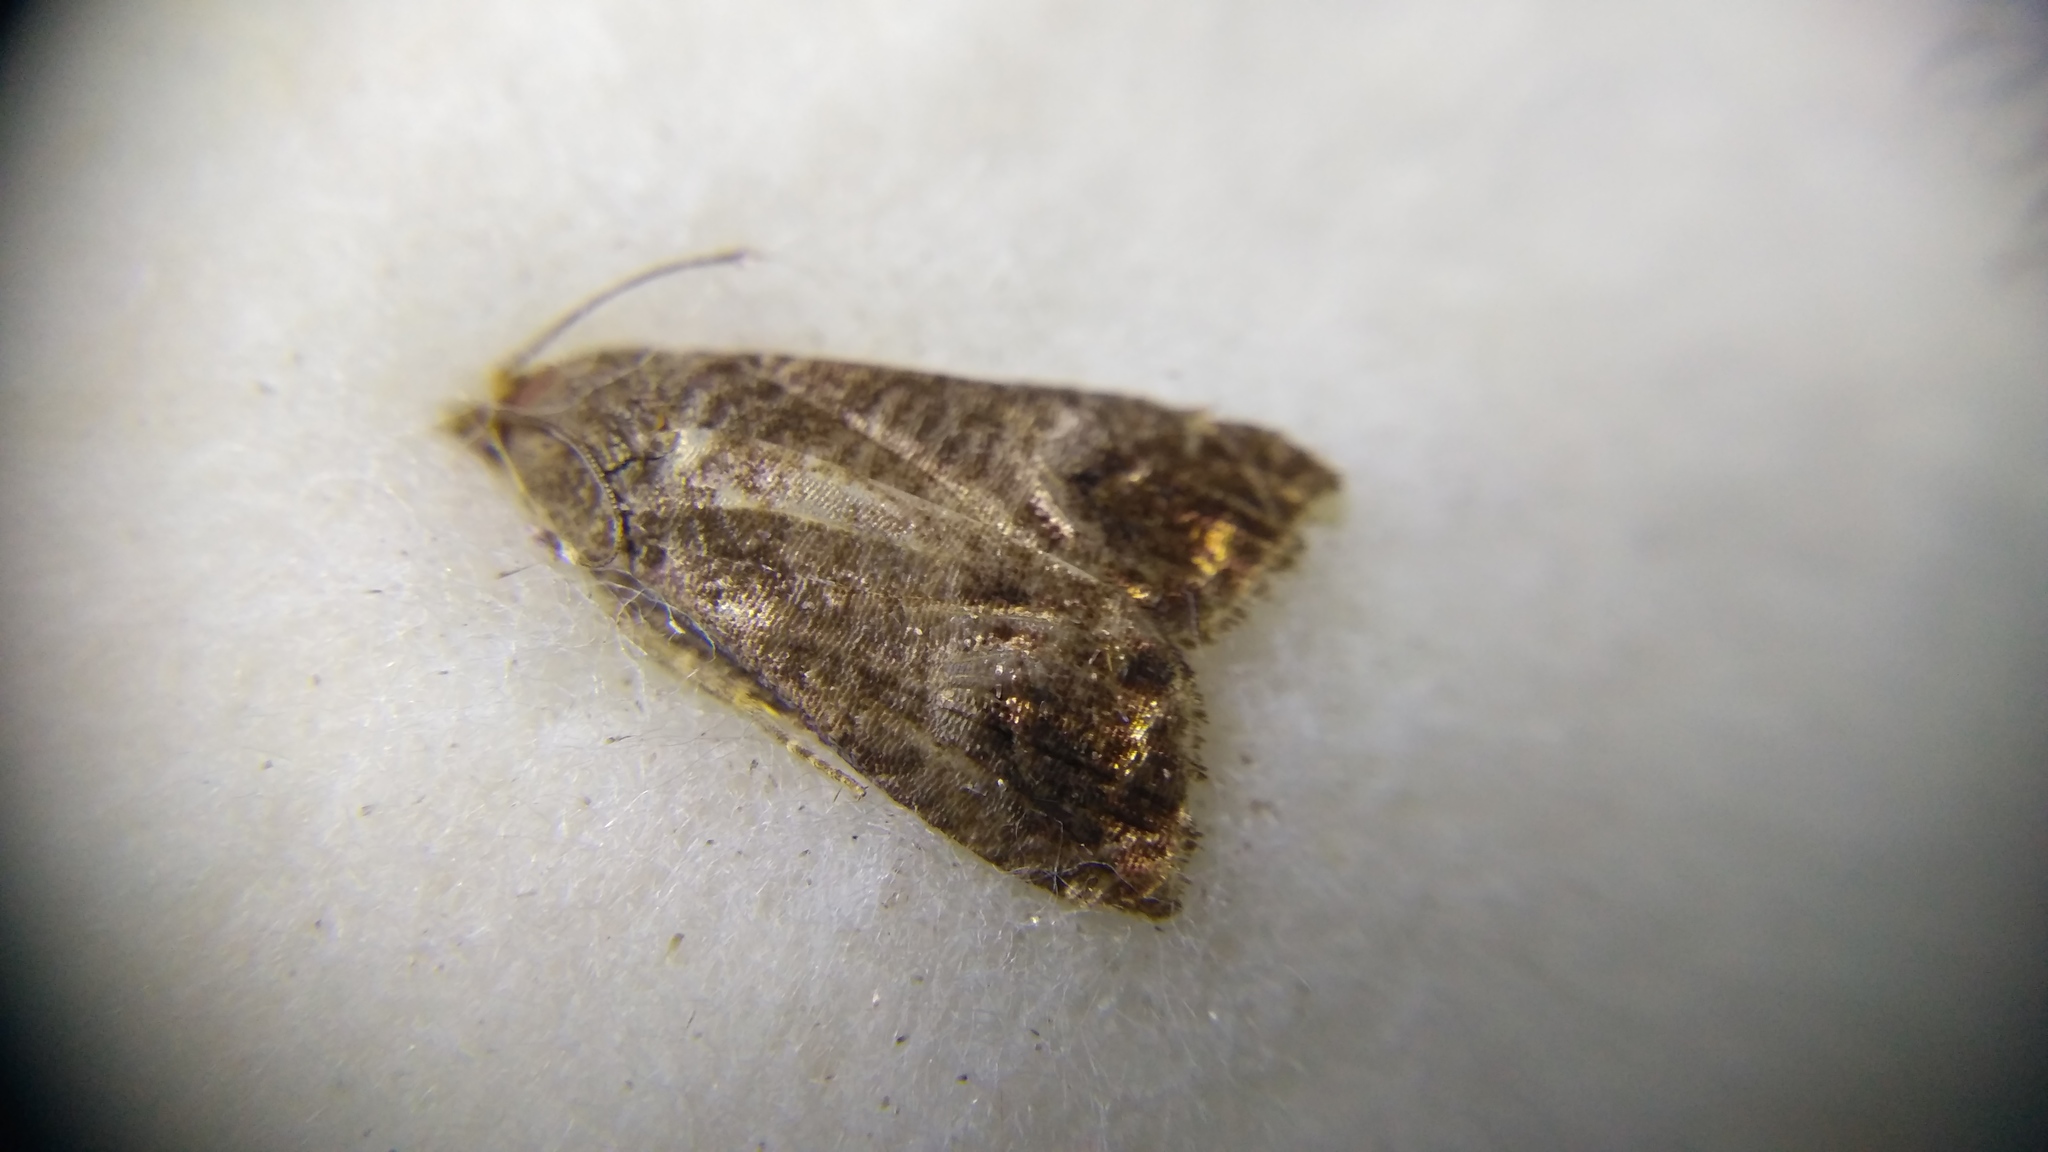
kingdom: Animalia
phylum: Arthropoda
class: Insecta
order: Lepidoptera
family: Tortricidae
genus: Cydia
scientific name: Cydia pomonella
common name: Codling moth
